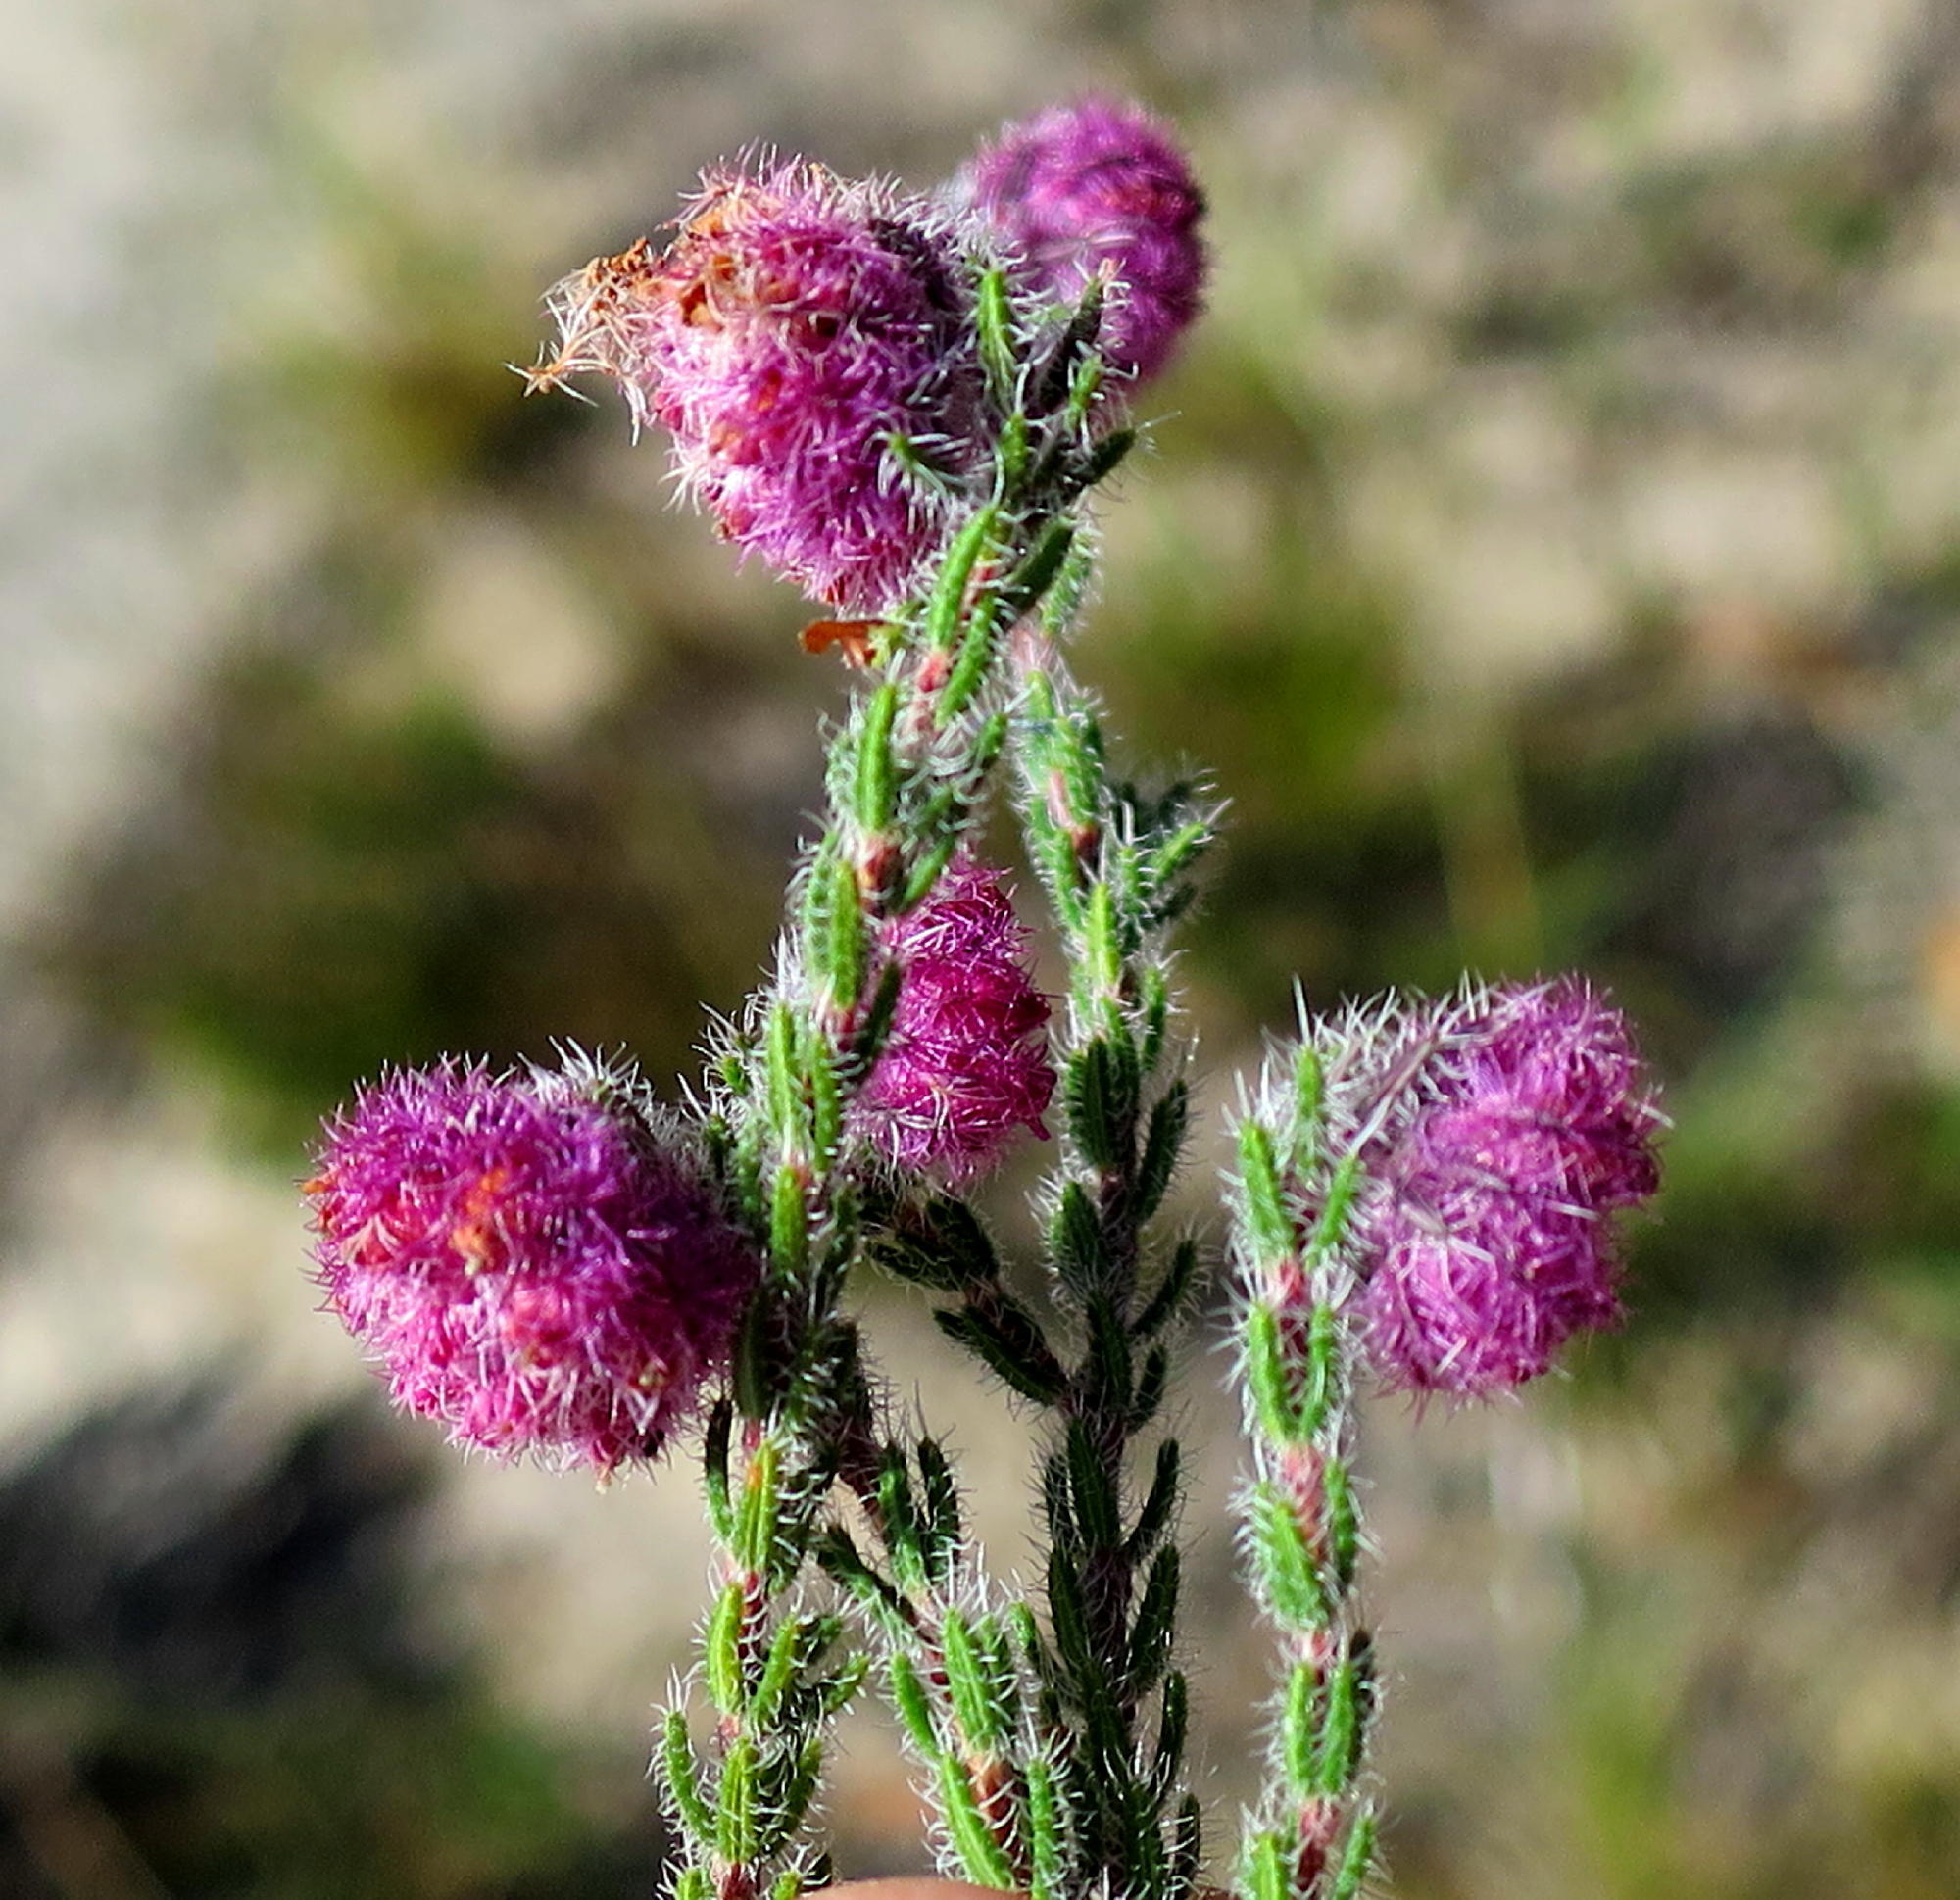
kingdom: Plantae
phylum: Tracheophyta
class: Magnoliopsida
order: Ericales
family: Ericaceae
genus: Erica
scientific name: Erica solandra
